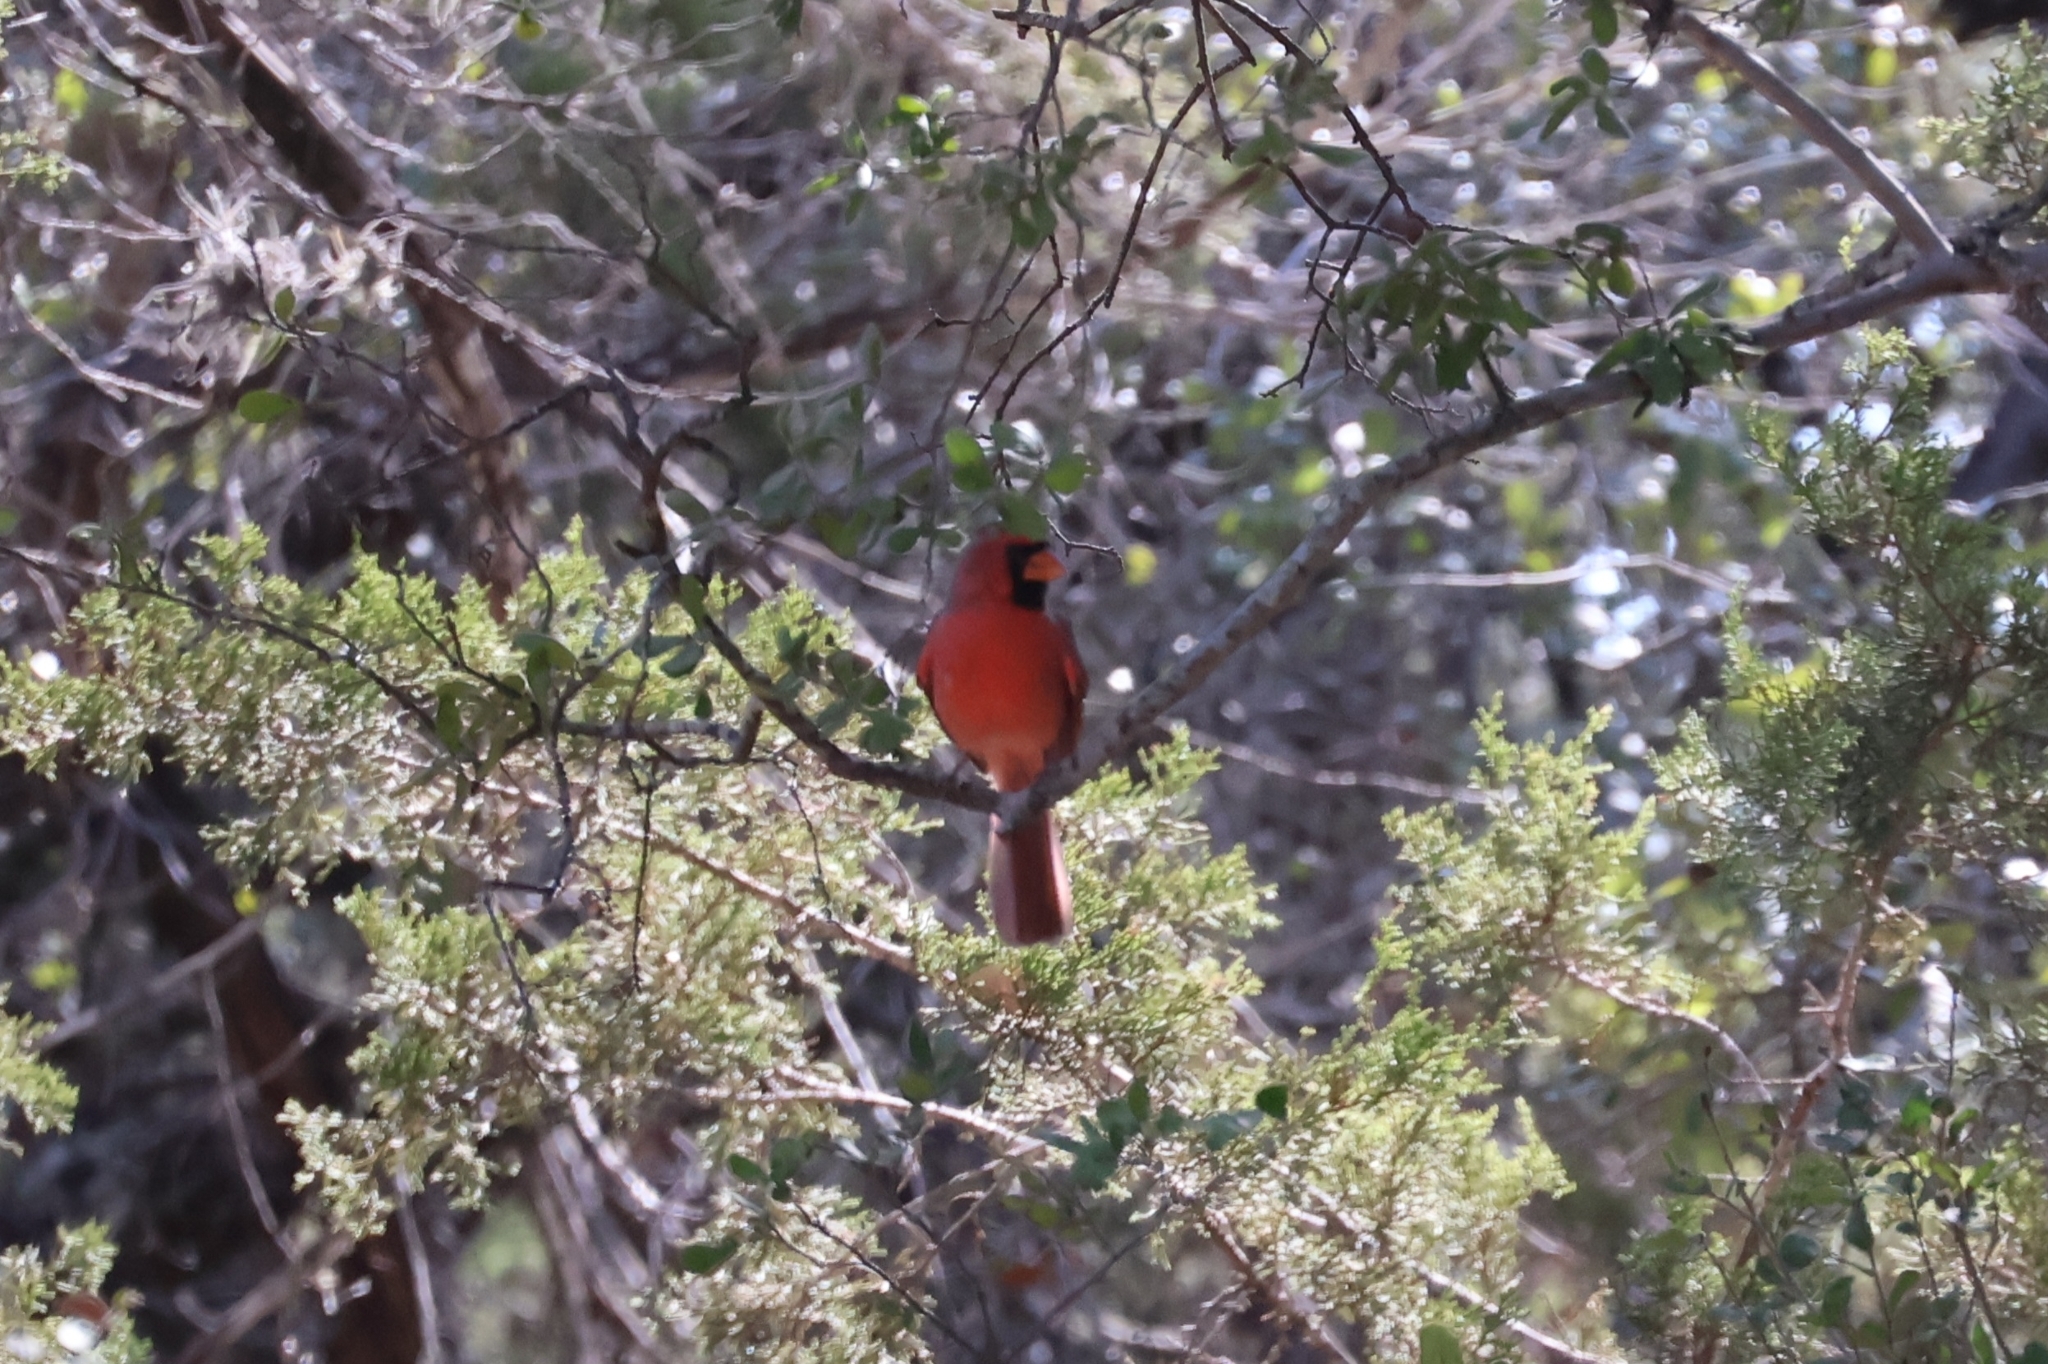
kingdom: Animalia
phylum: Chordata
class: Aves
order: Passeriformes
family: Cardinalidae
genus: Cardinalis
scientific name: Cardinalis cardinalis
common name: Northern cardinal
